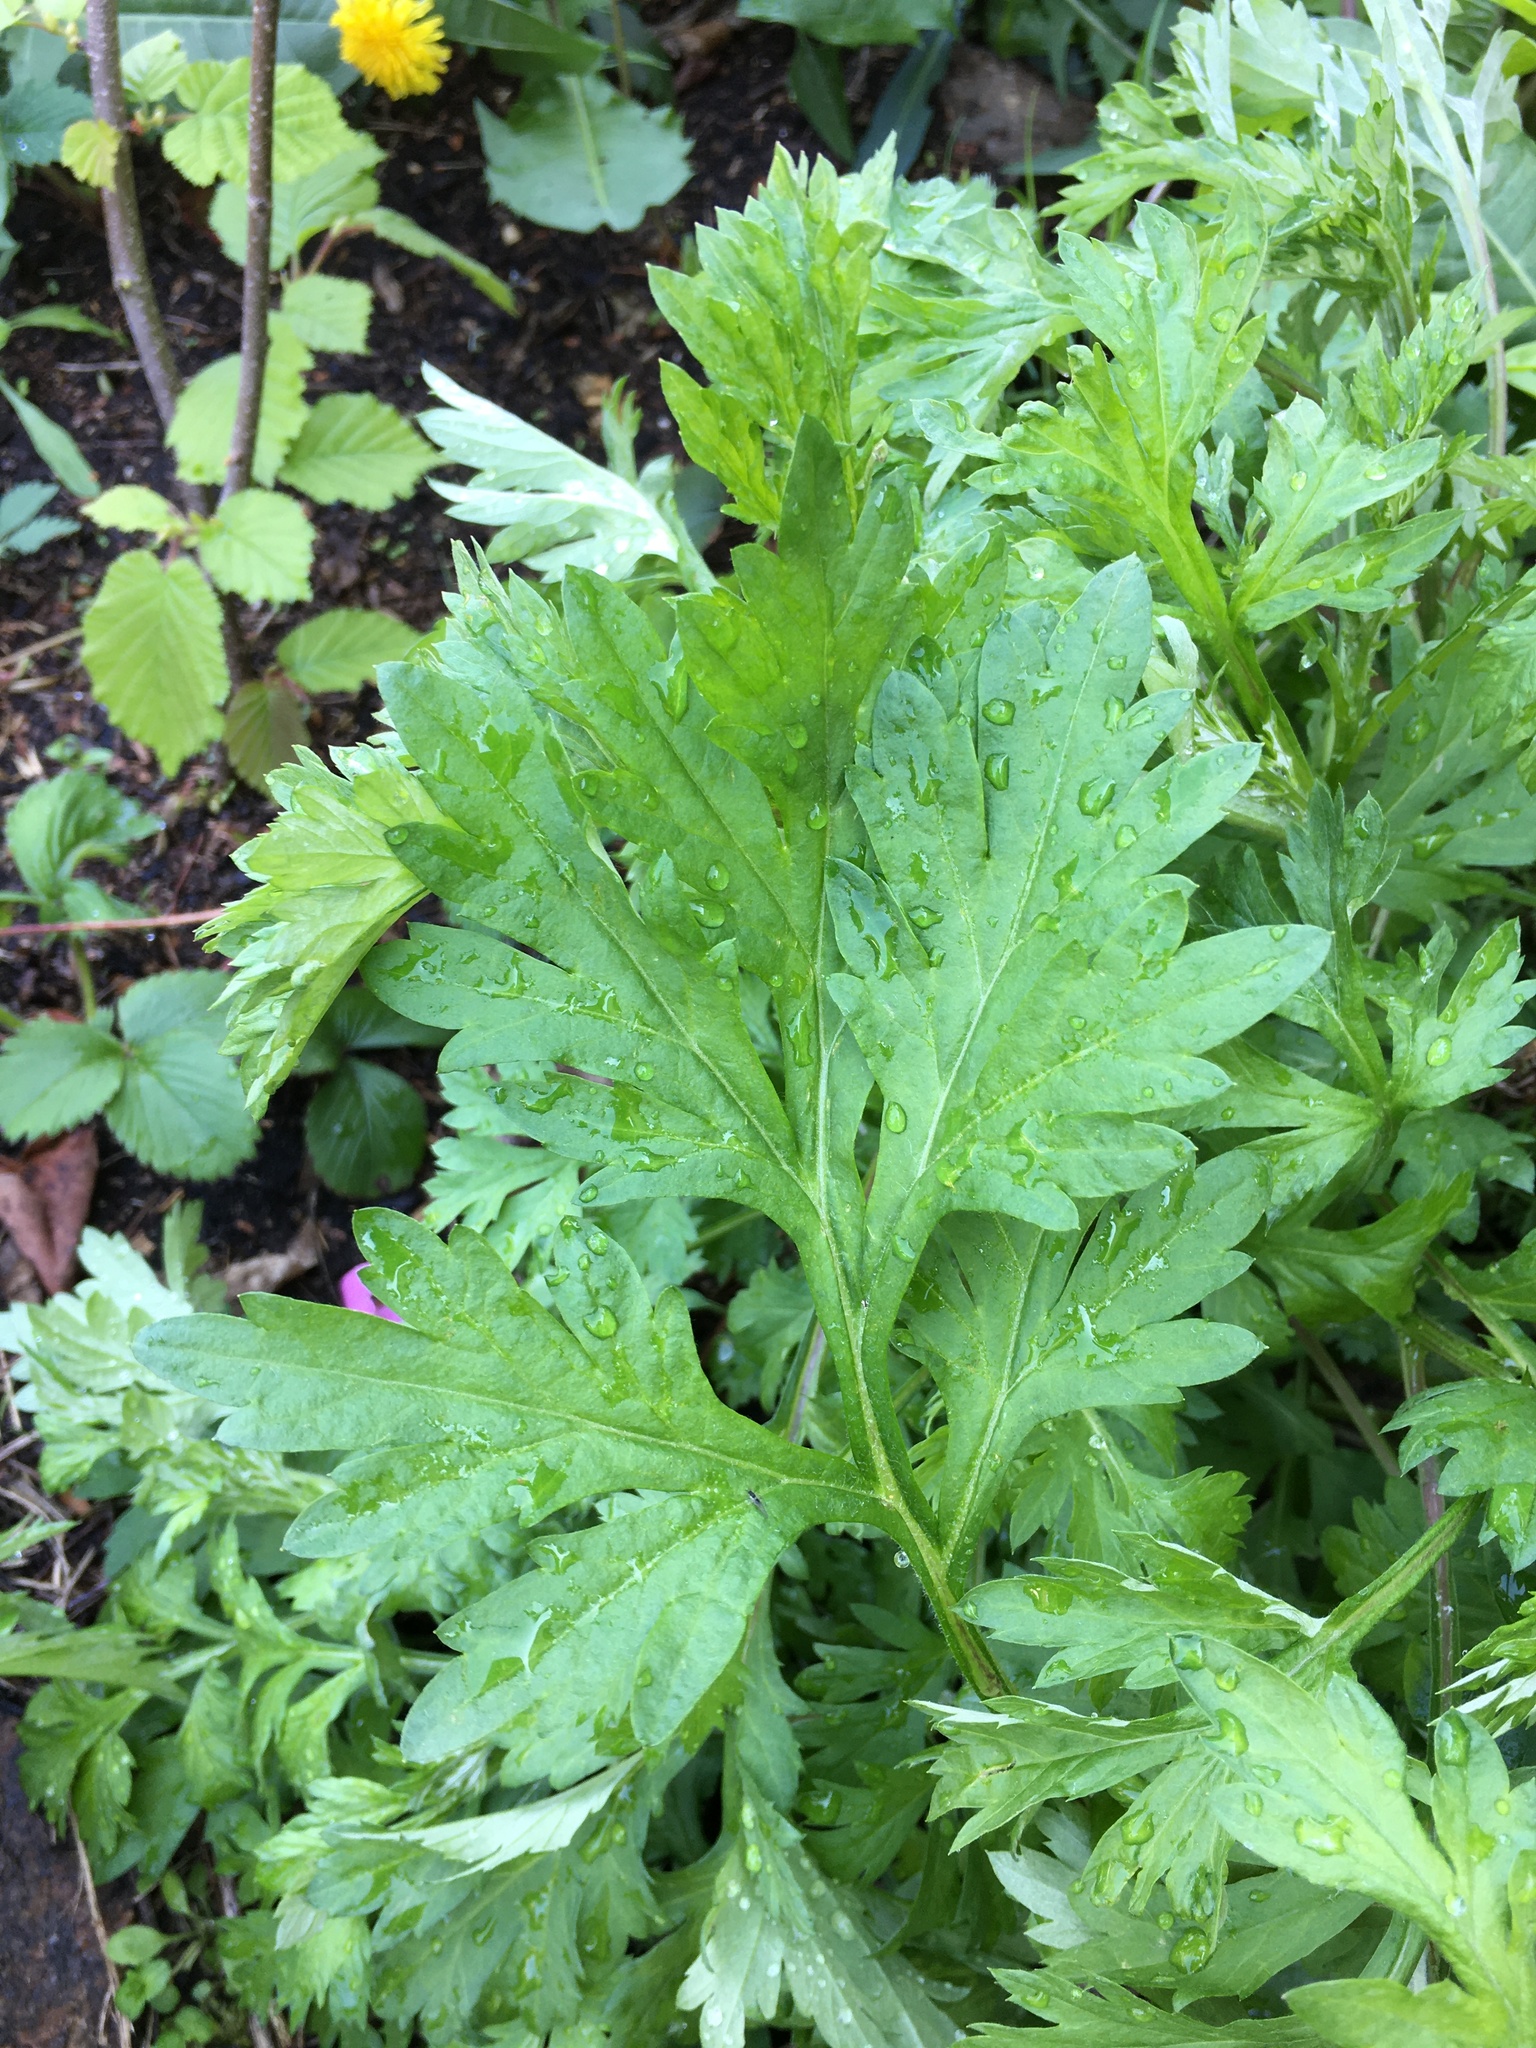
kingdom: Plantae
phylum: Tracheophyta
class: Magnoliopsida
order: Asterales
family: Asteraceae
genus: Artemisia
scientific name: Artemisia vulgaris
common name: Mugwort
